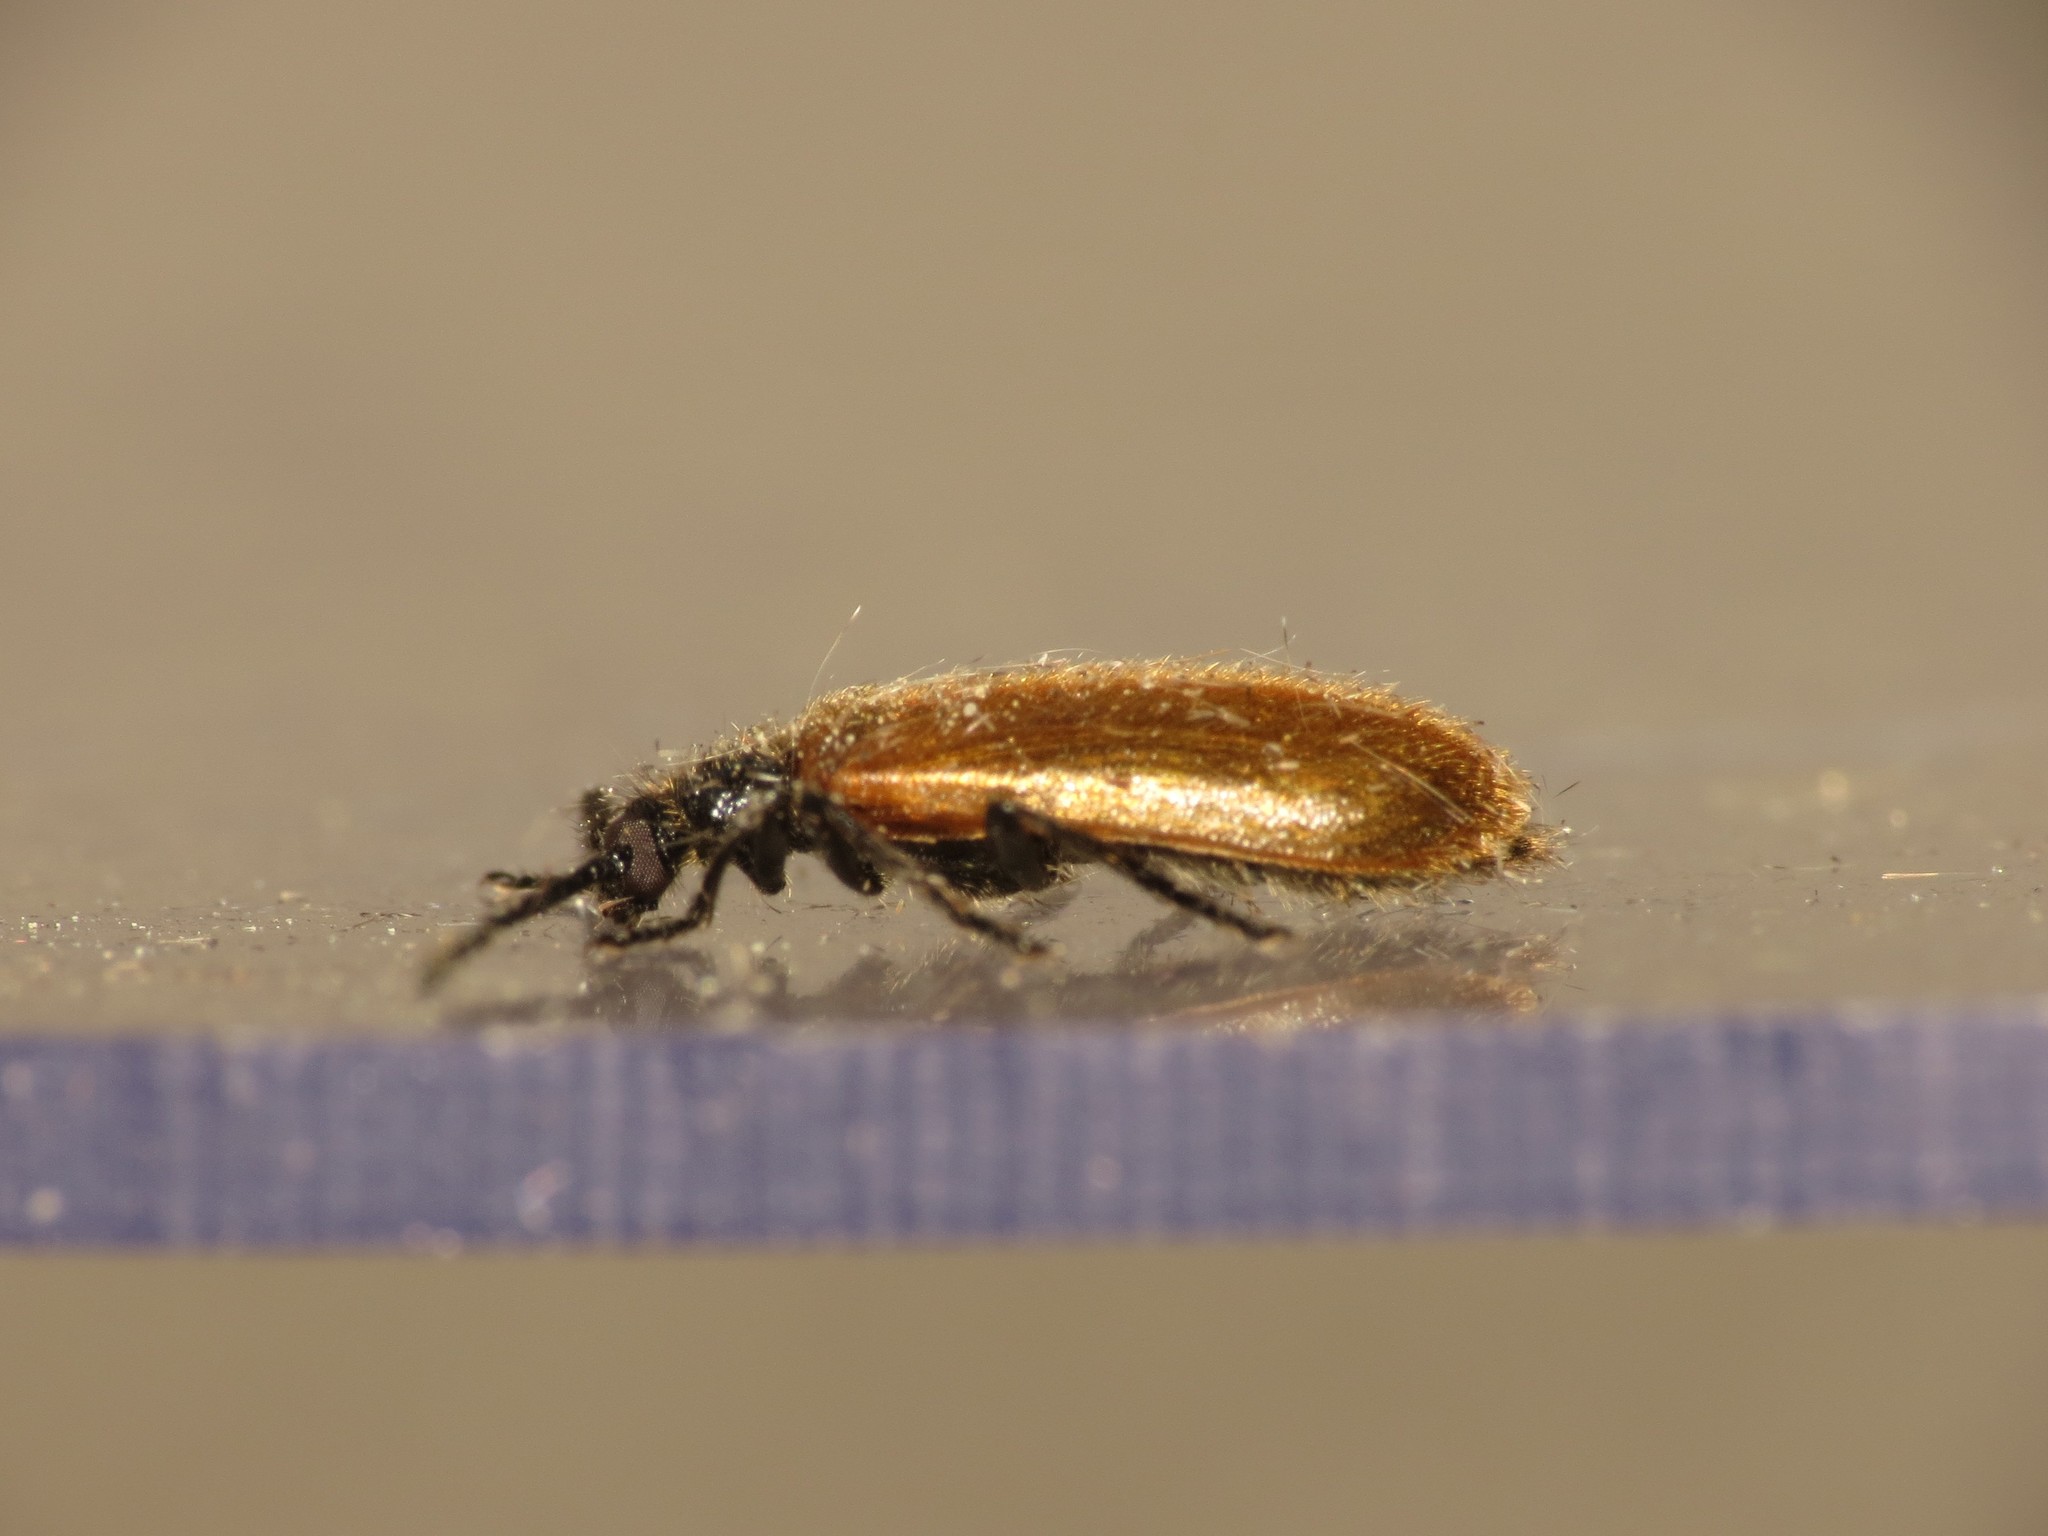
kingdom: Animalia
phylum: Arthropoda
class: Insecta
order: Coleoptera
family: Tenebrionidae
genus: Lagria
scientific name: Lagria hirta
